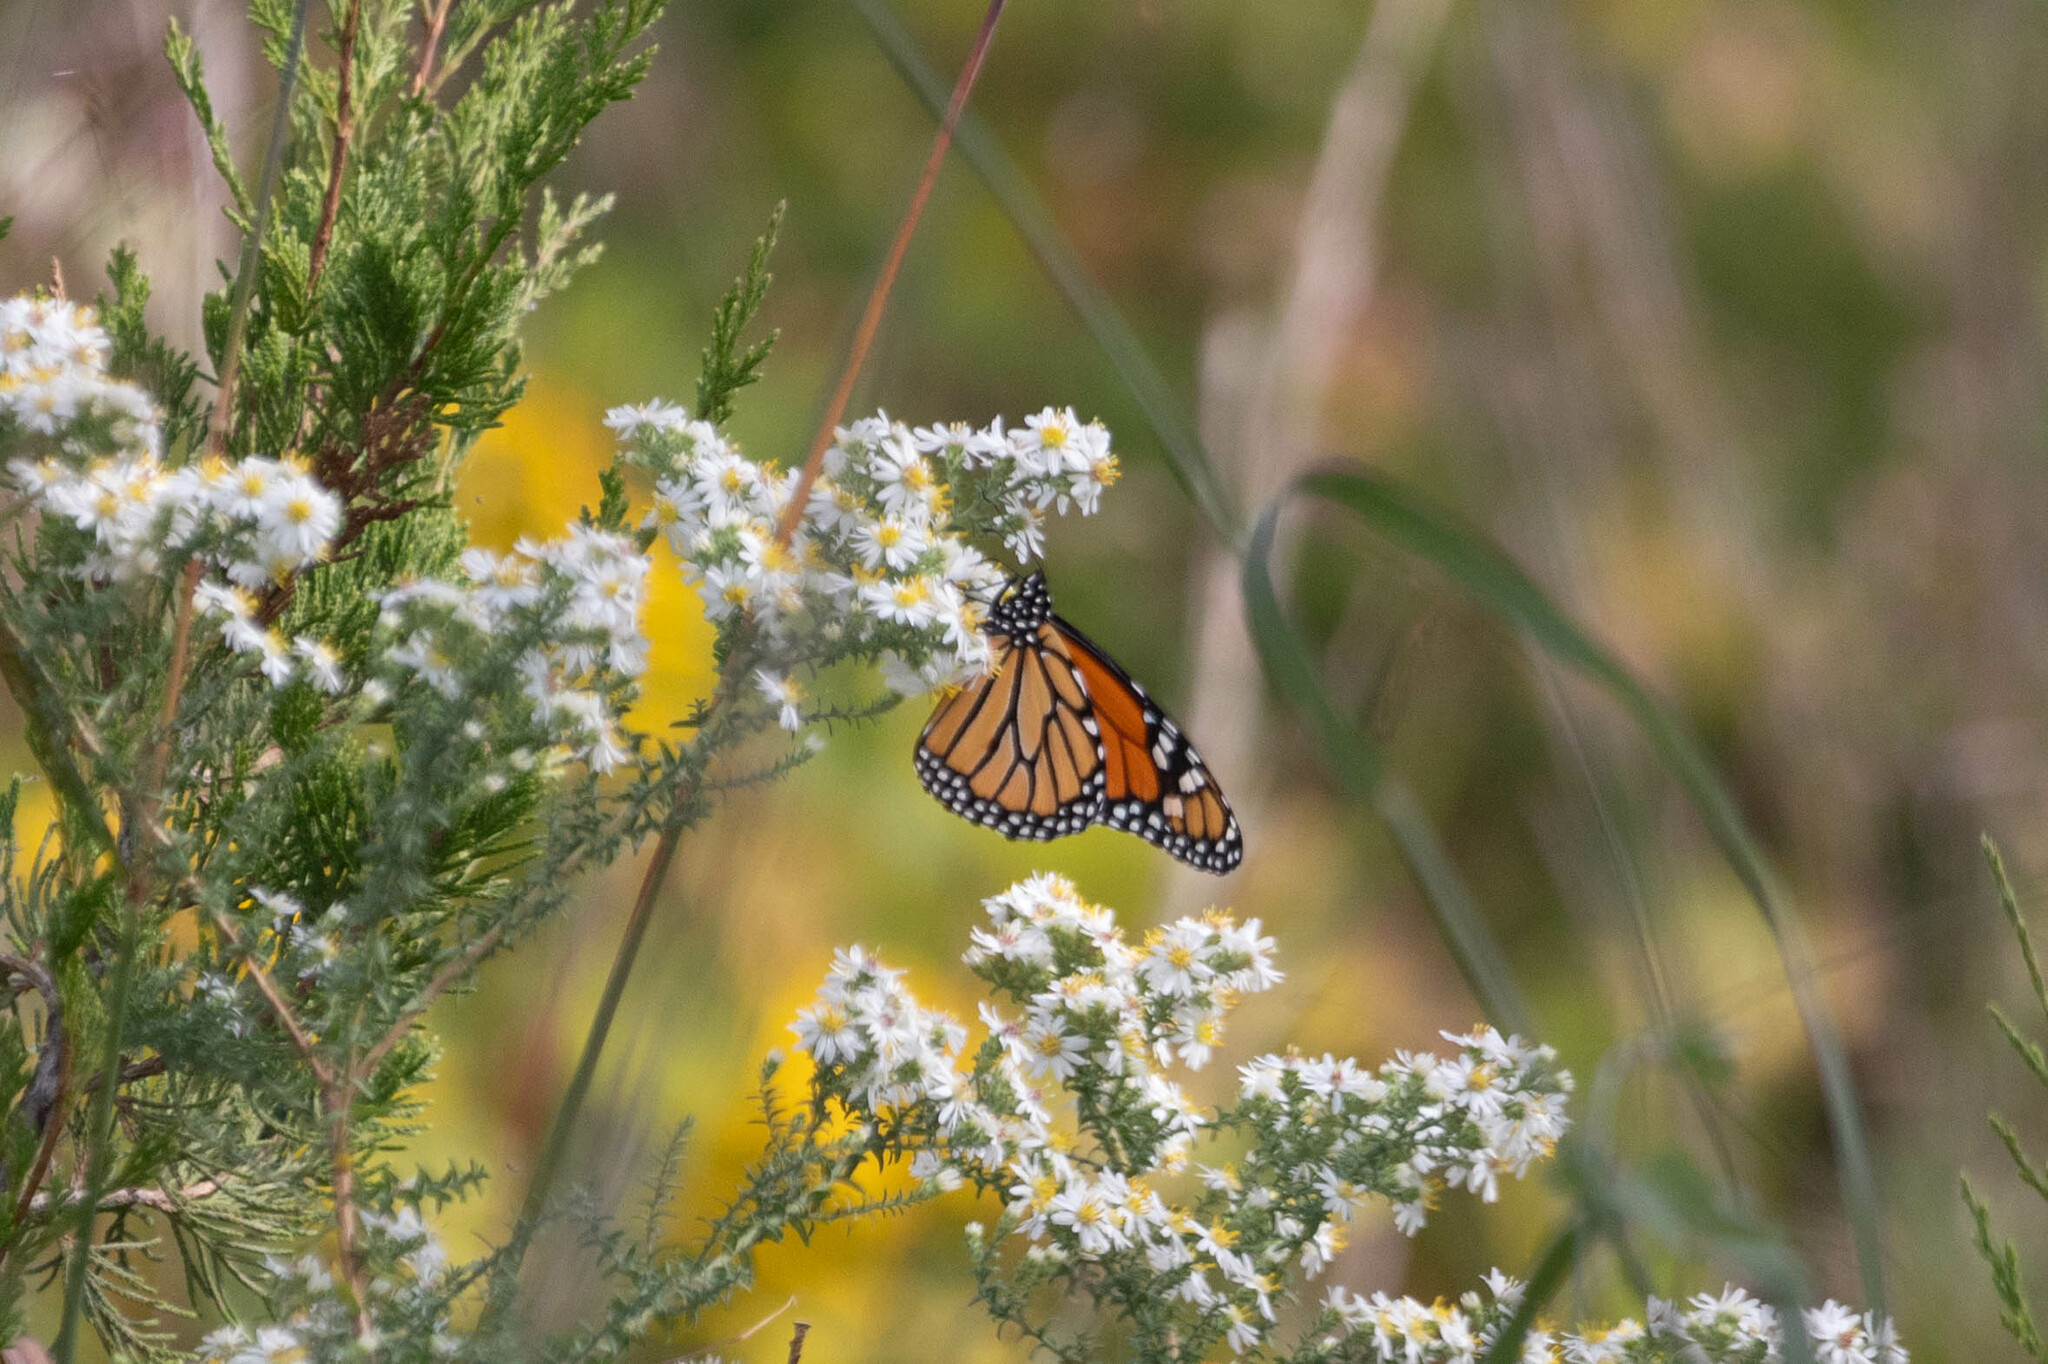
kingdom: Animalia
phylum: Arthropoda
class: Insecta
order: Lepidoptera
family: Nymphalidae
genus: Danaus
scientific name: Danaus plexippus
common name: Monarch
